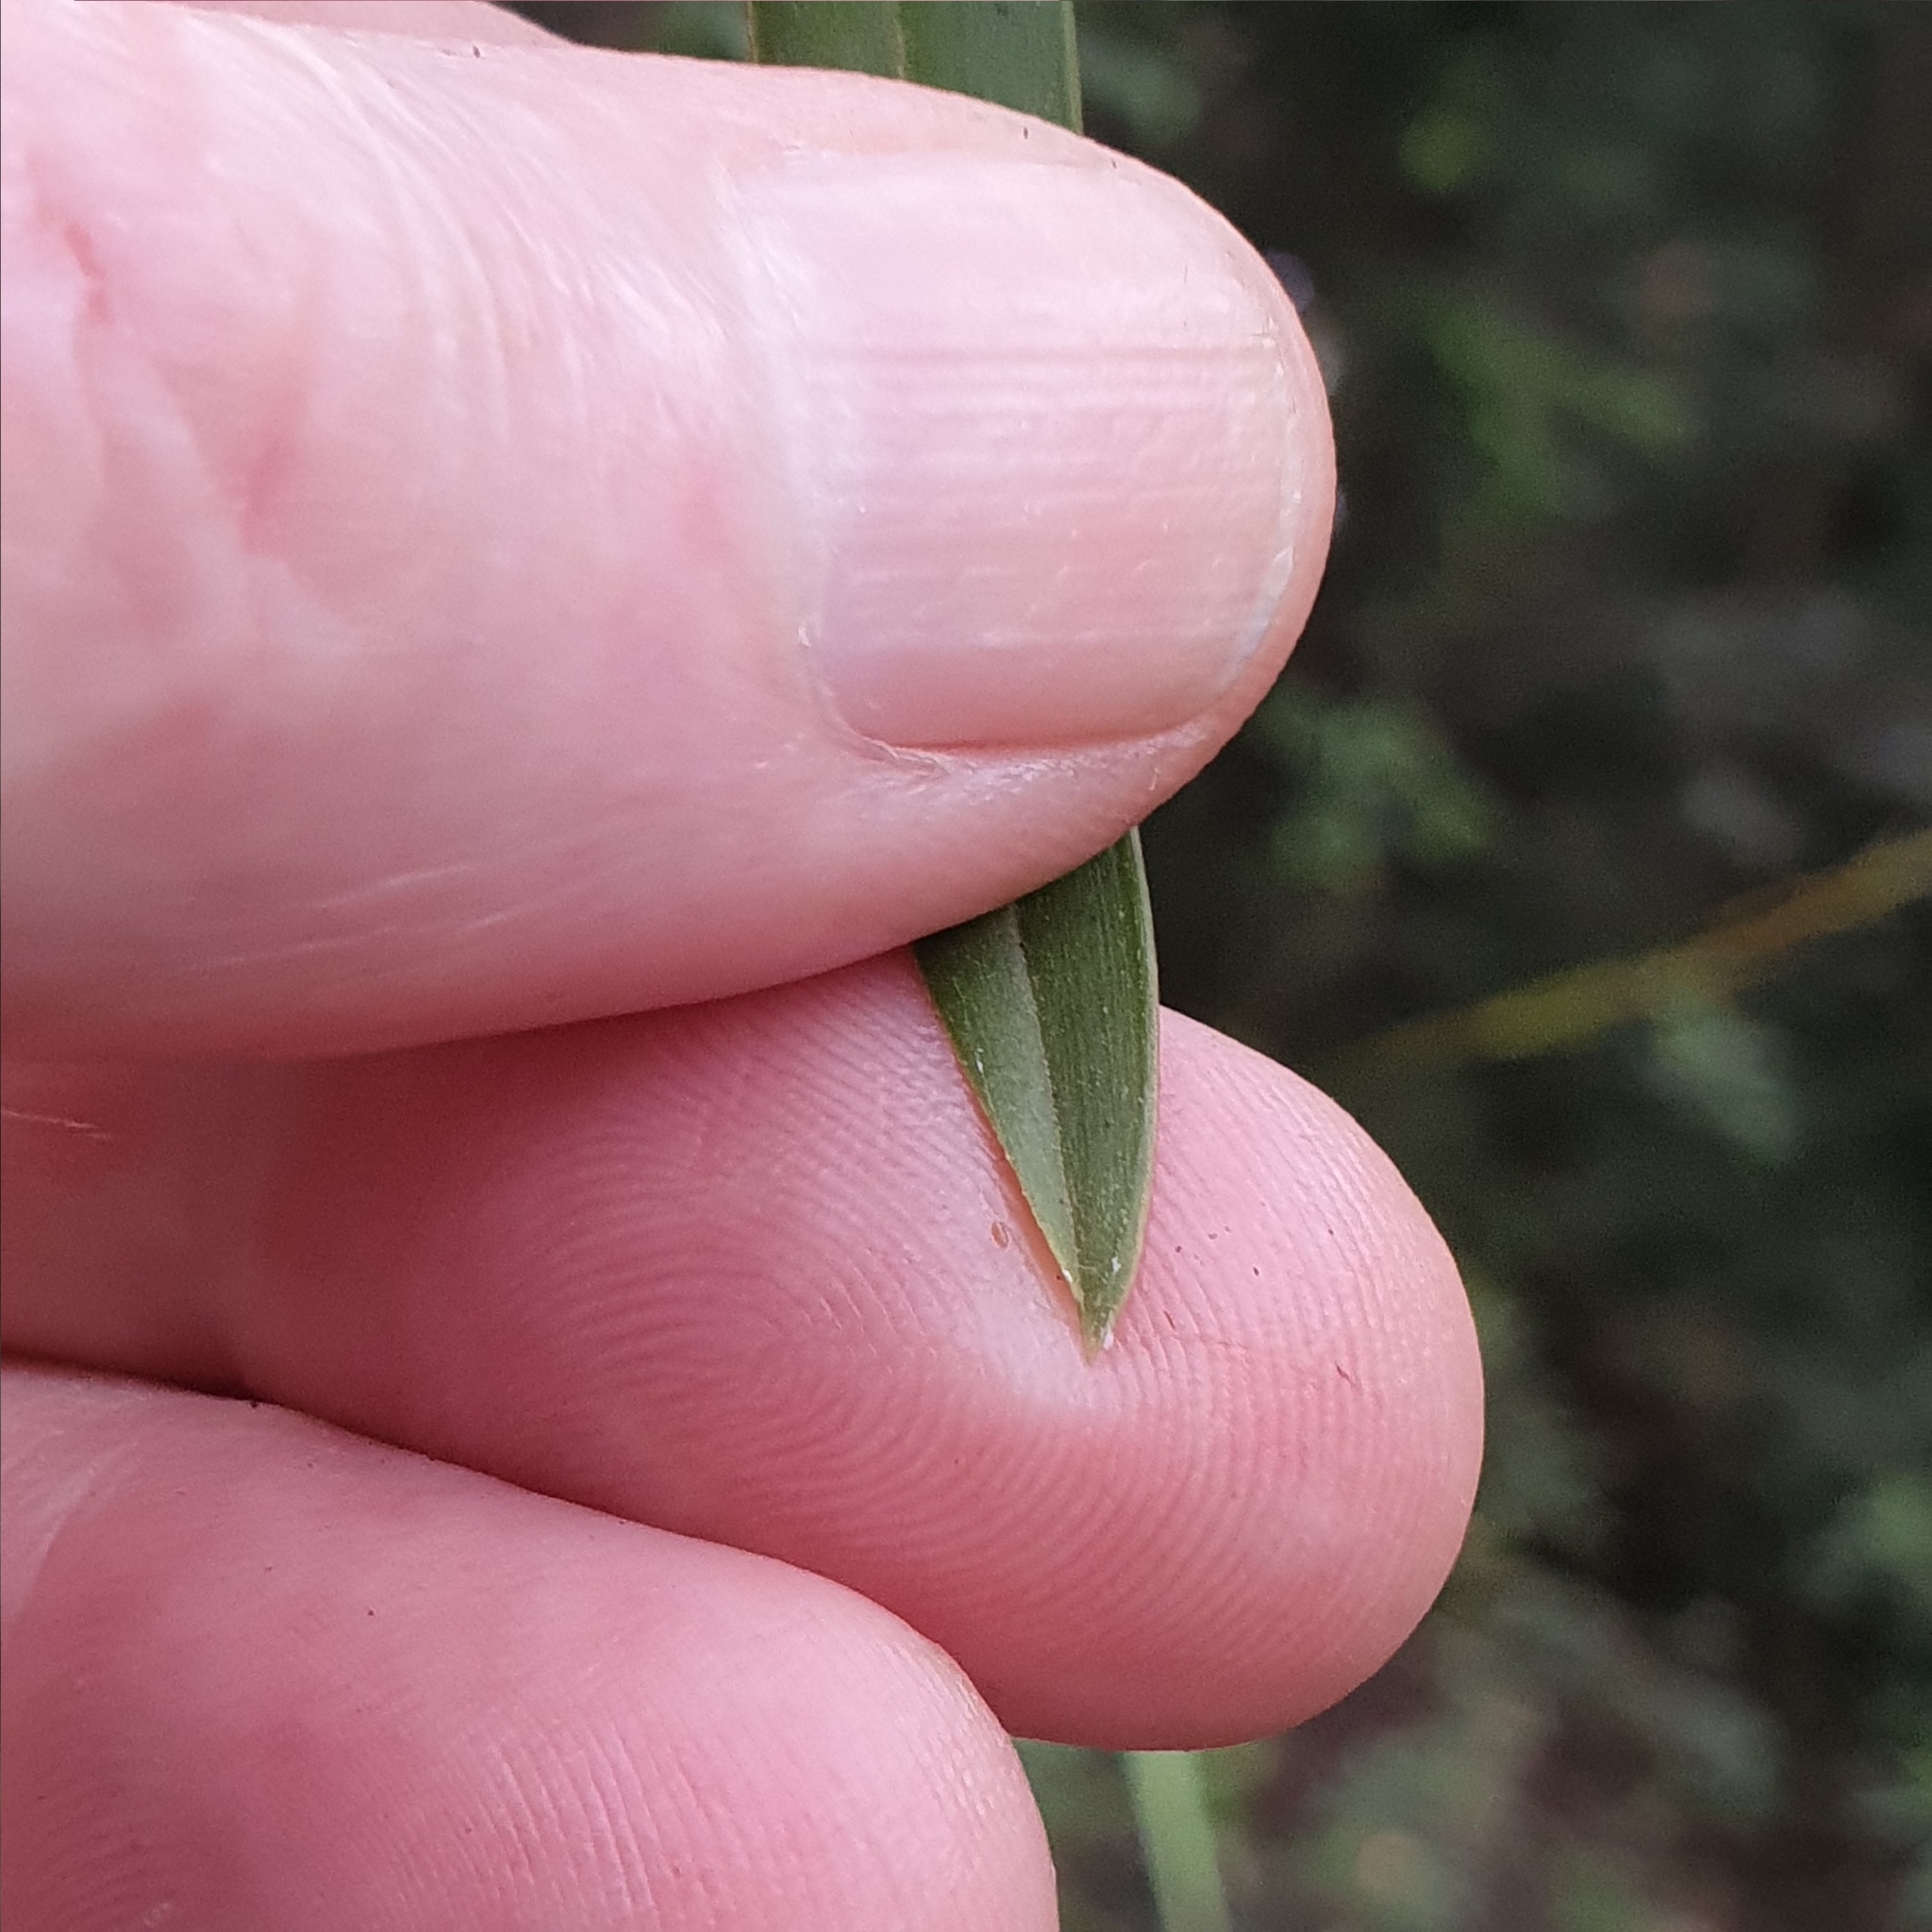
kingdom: Plantae
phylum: Tracheophyta
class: Liliopsida
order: Asparagales
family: Orchidaceae
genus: Cymbidium
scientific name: Cymbidium suave
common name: Snake orchid
